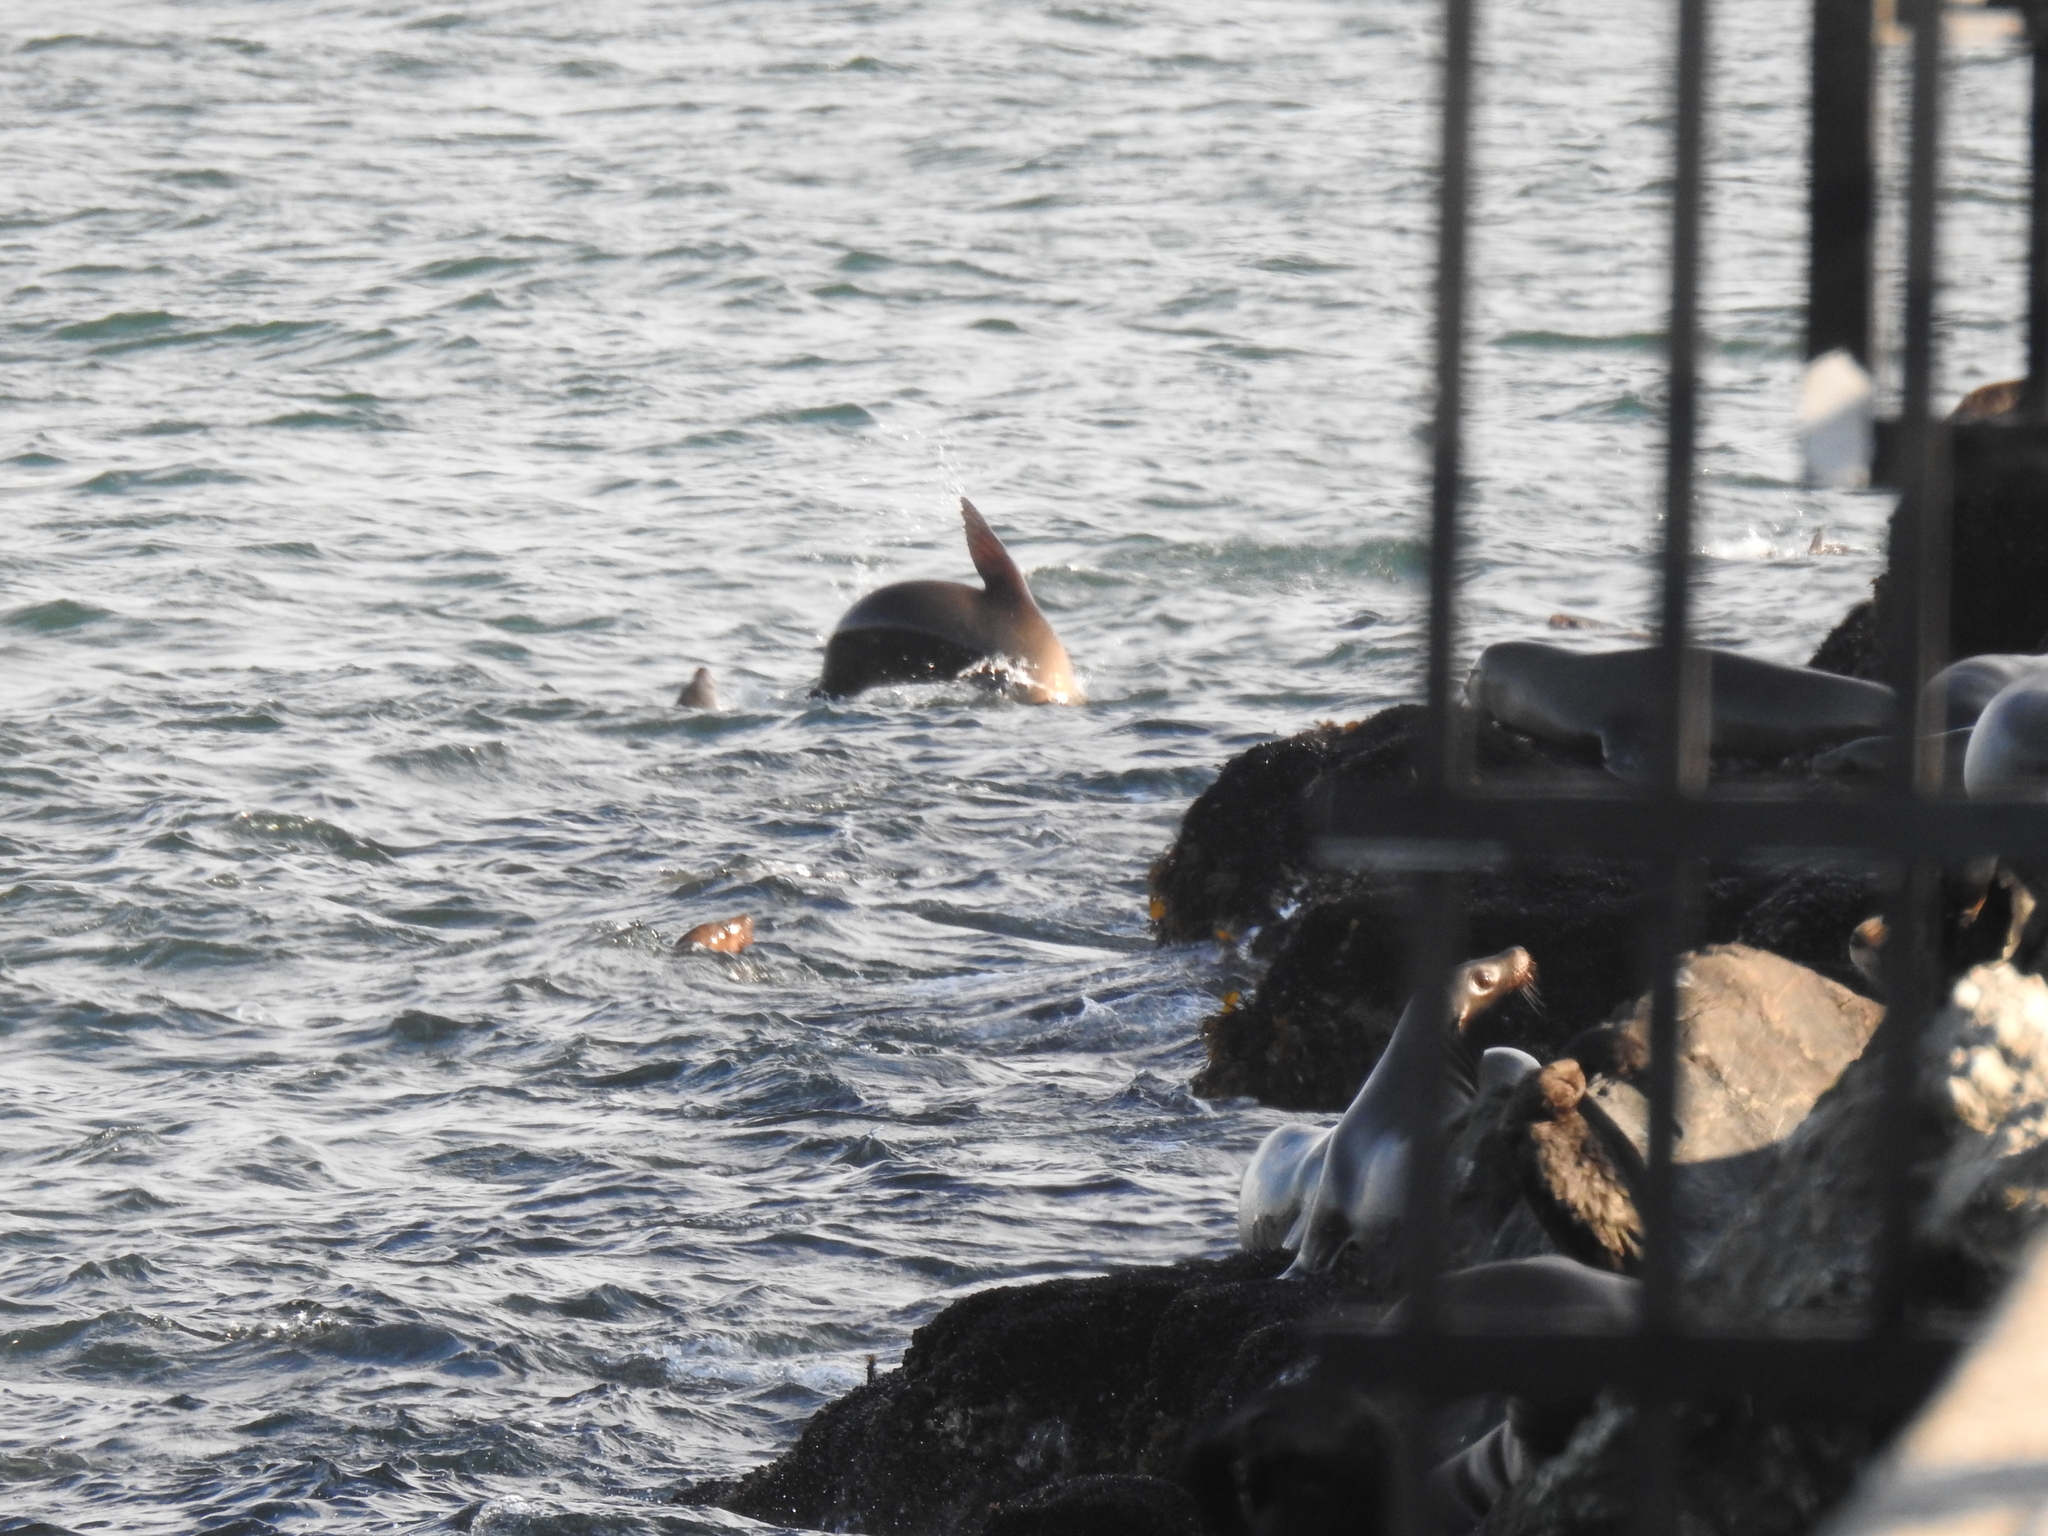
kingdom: Animalia
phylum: Chordata
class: Mammalia
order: Carnivora
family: Otariidae
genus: Zalophus
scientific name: Zalophus californianus
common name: California sea lion
